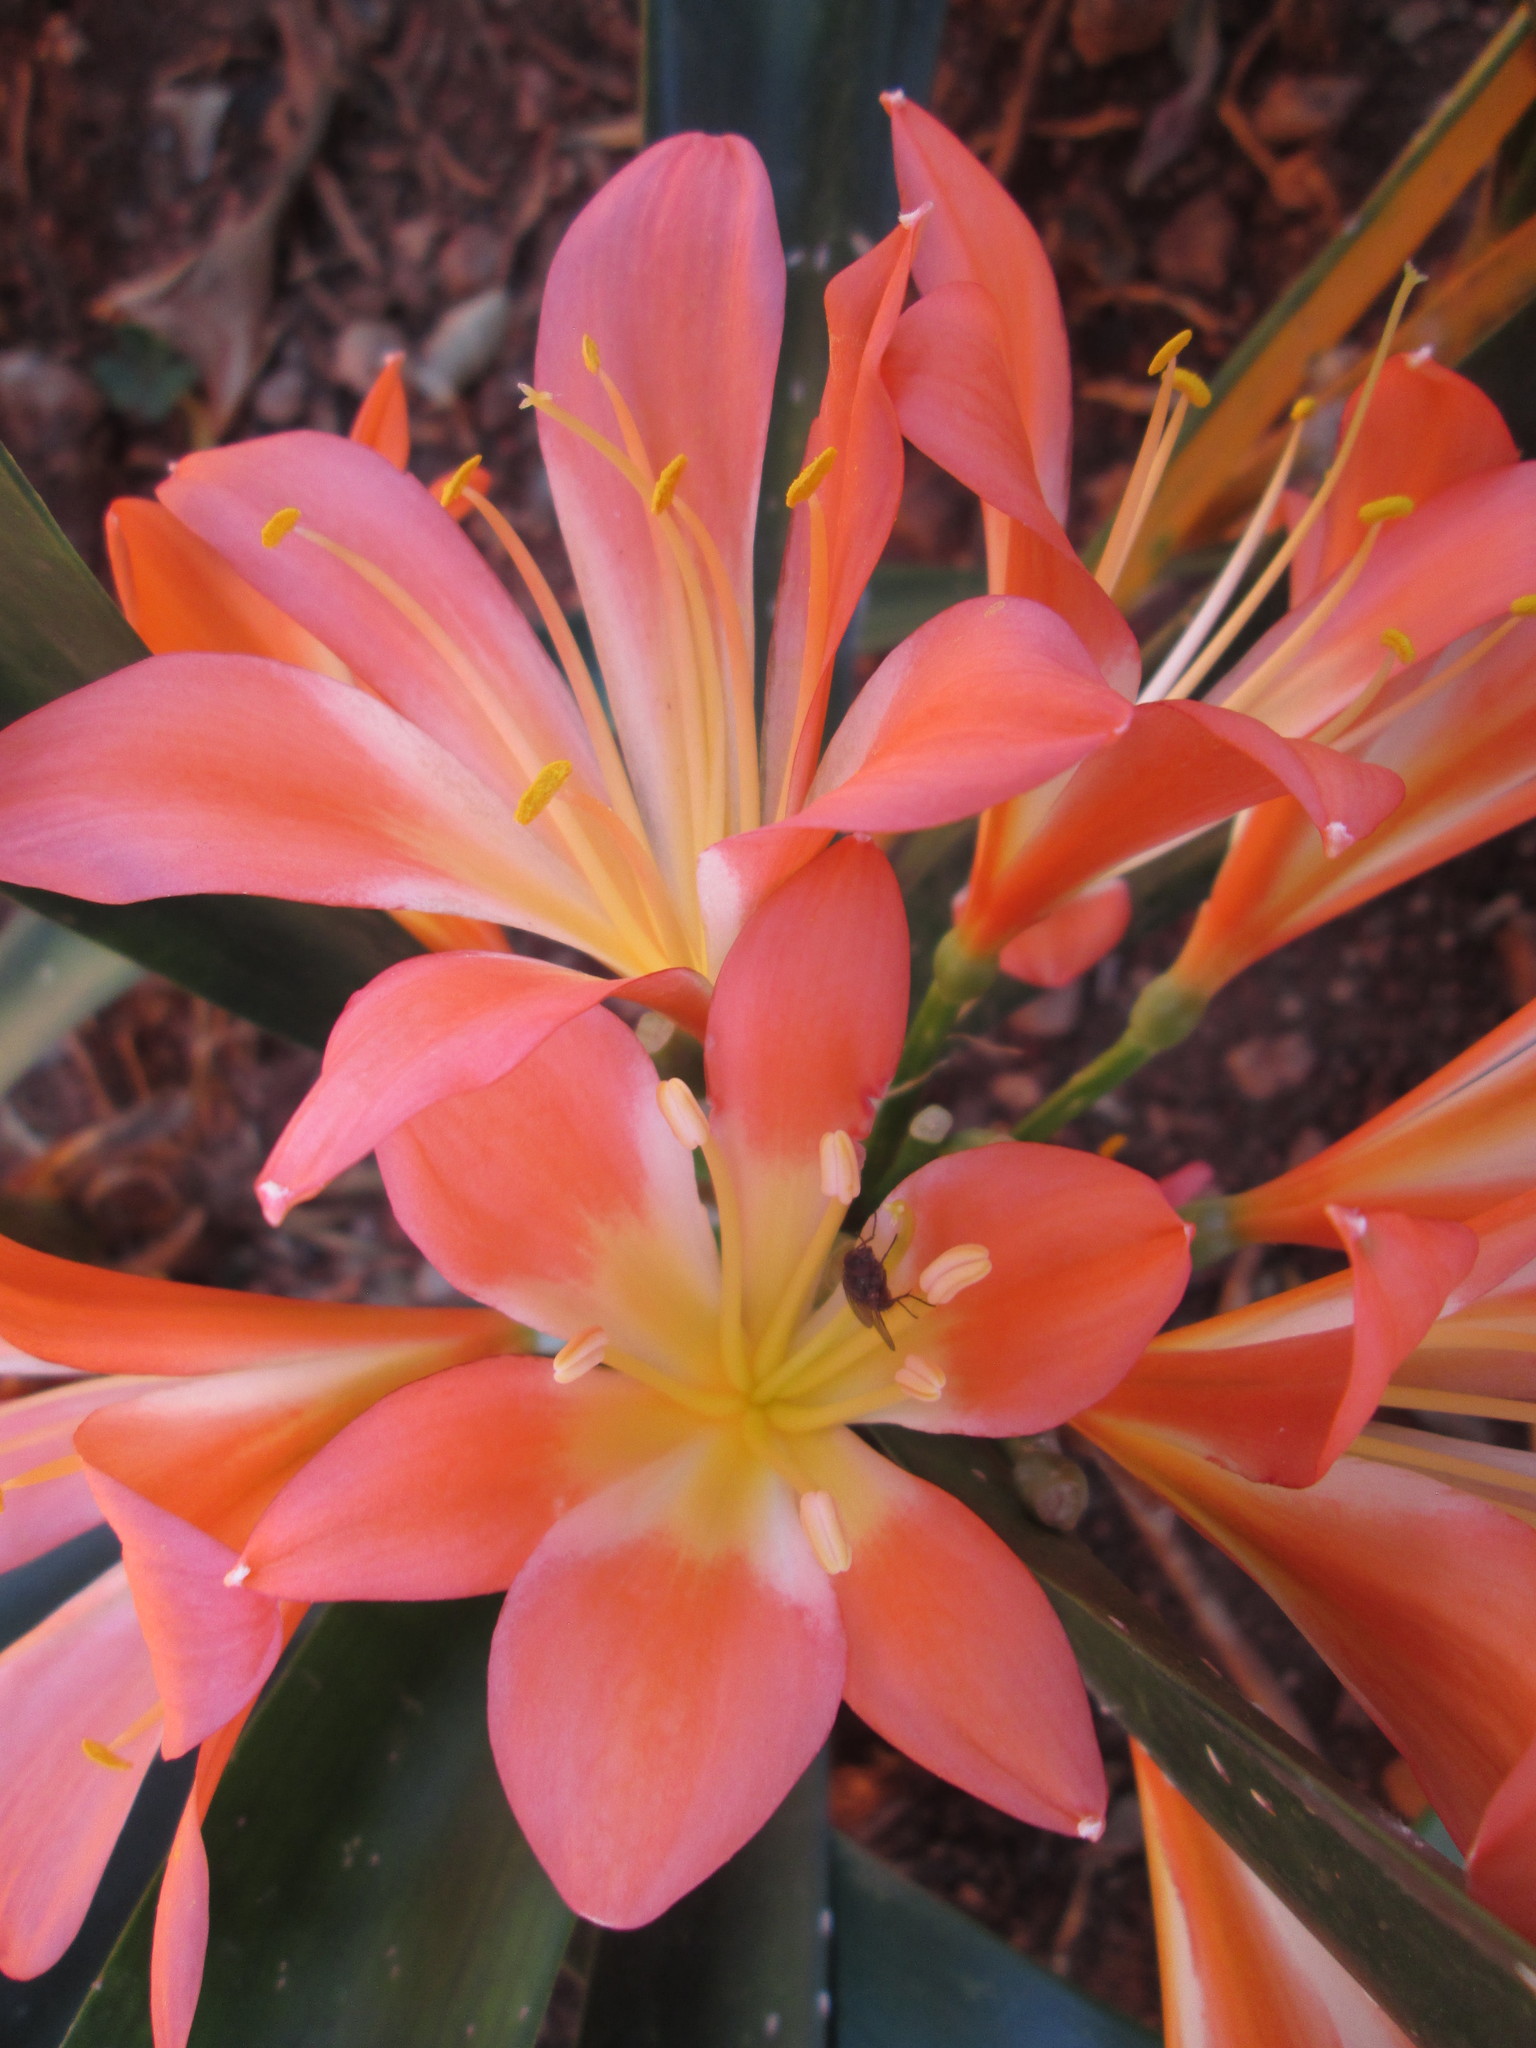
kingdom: Plantae
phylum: Tracheophyta
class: Liliopsida
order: Asparagales
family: Amaryllidaceae
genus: Clivia
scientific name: Clivia miniata
